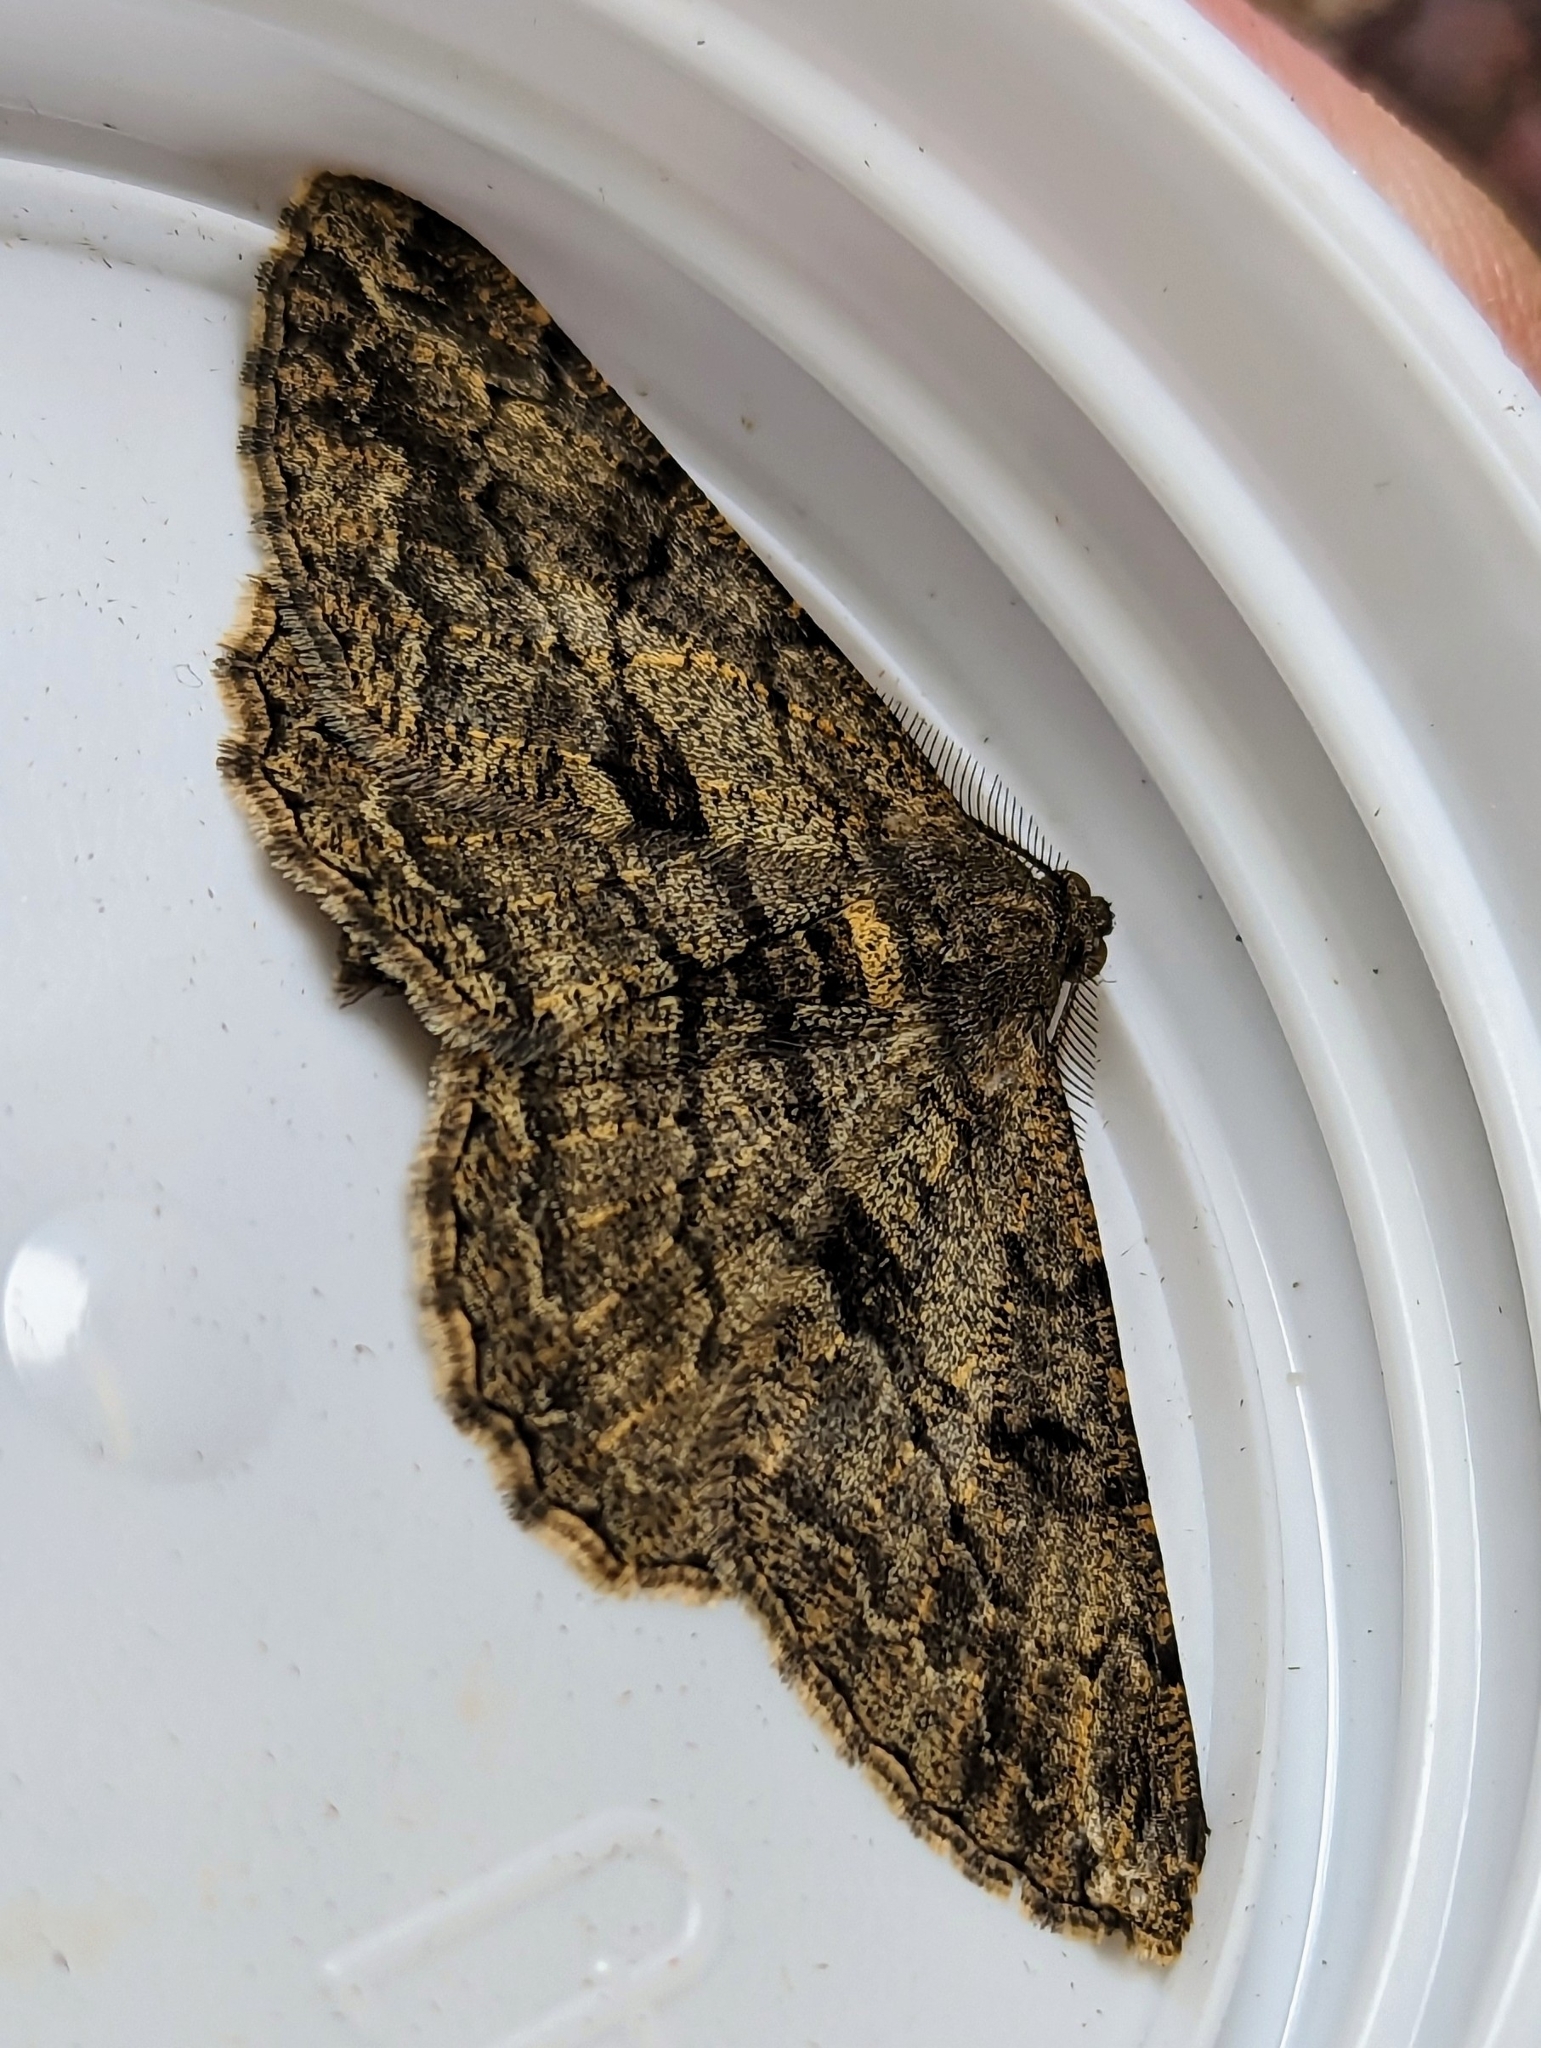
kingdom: Animalia
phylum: Arthropoda
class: Insecta
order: Lepidoptera
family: Geometridae
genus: Peribatodes
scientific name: Peribatodes rhomboidaria
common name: Willow beauty
